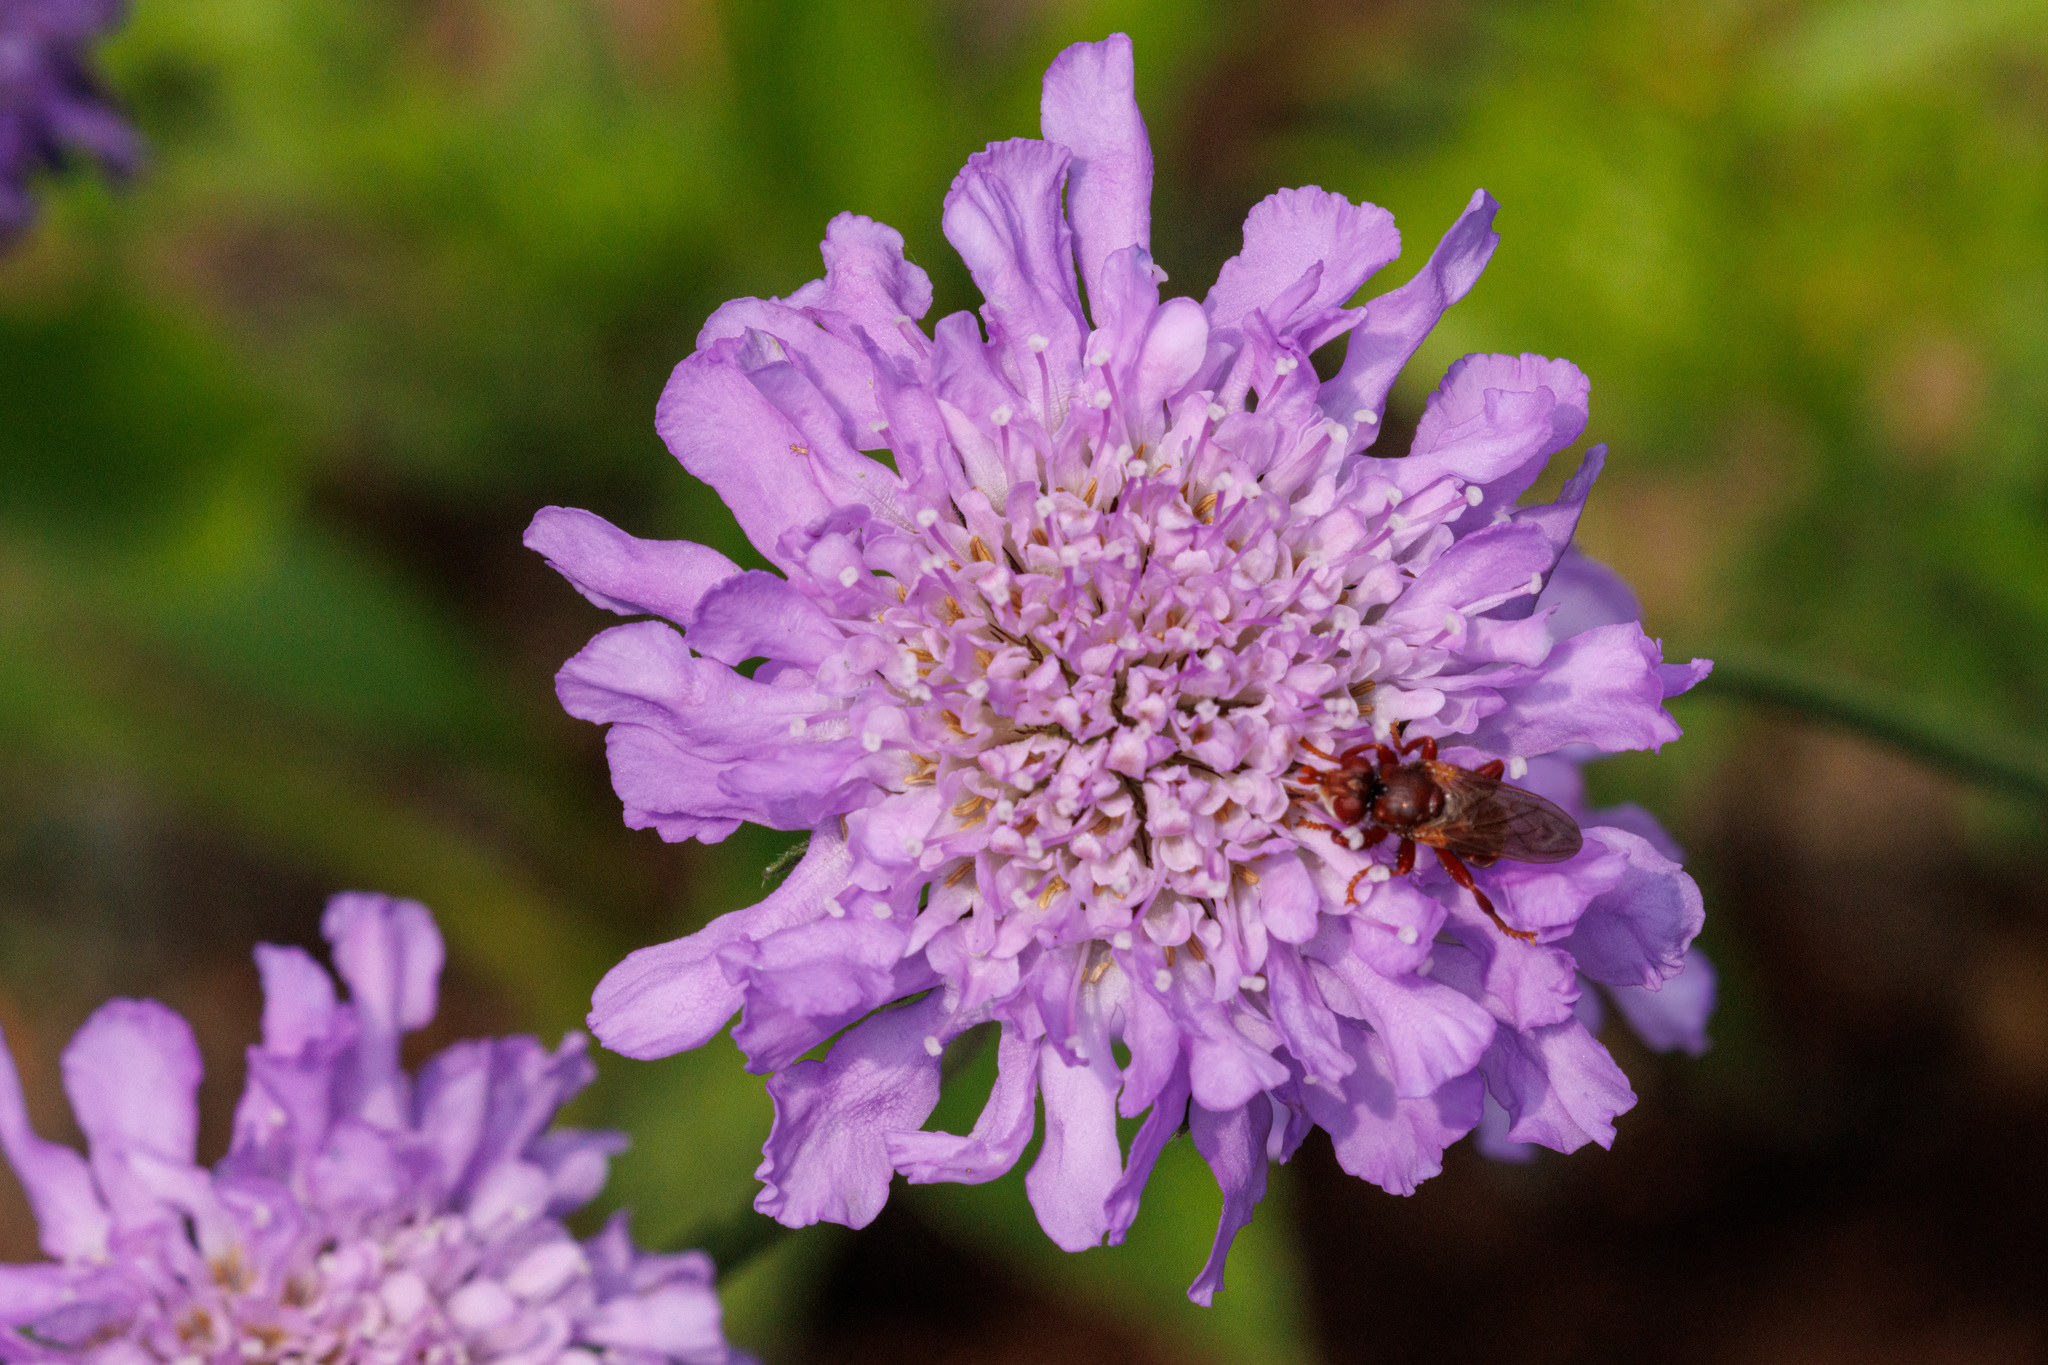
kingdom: Animalia
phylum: Arthropoda
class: Insecta
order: Diptera
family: Conopidae
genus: Myopa
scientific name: Myopa rubida
